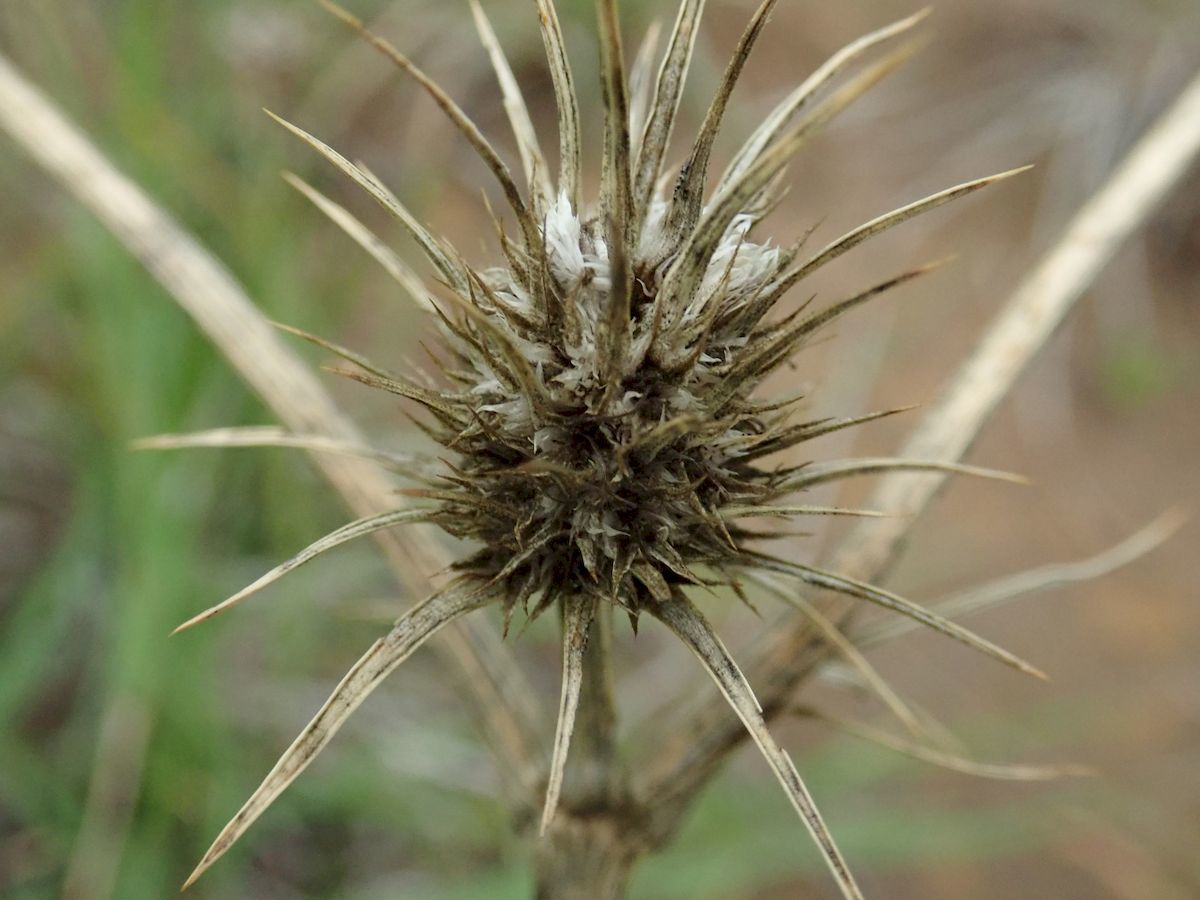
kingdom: Plantae
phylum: Tracheophyta
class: Magnoliopsida
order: Apiales
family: Apiaceae
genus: Eryngium
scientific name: Eryngium ovinum
